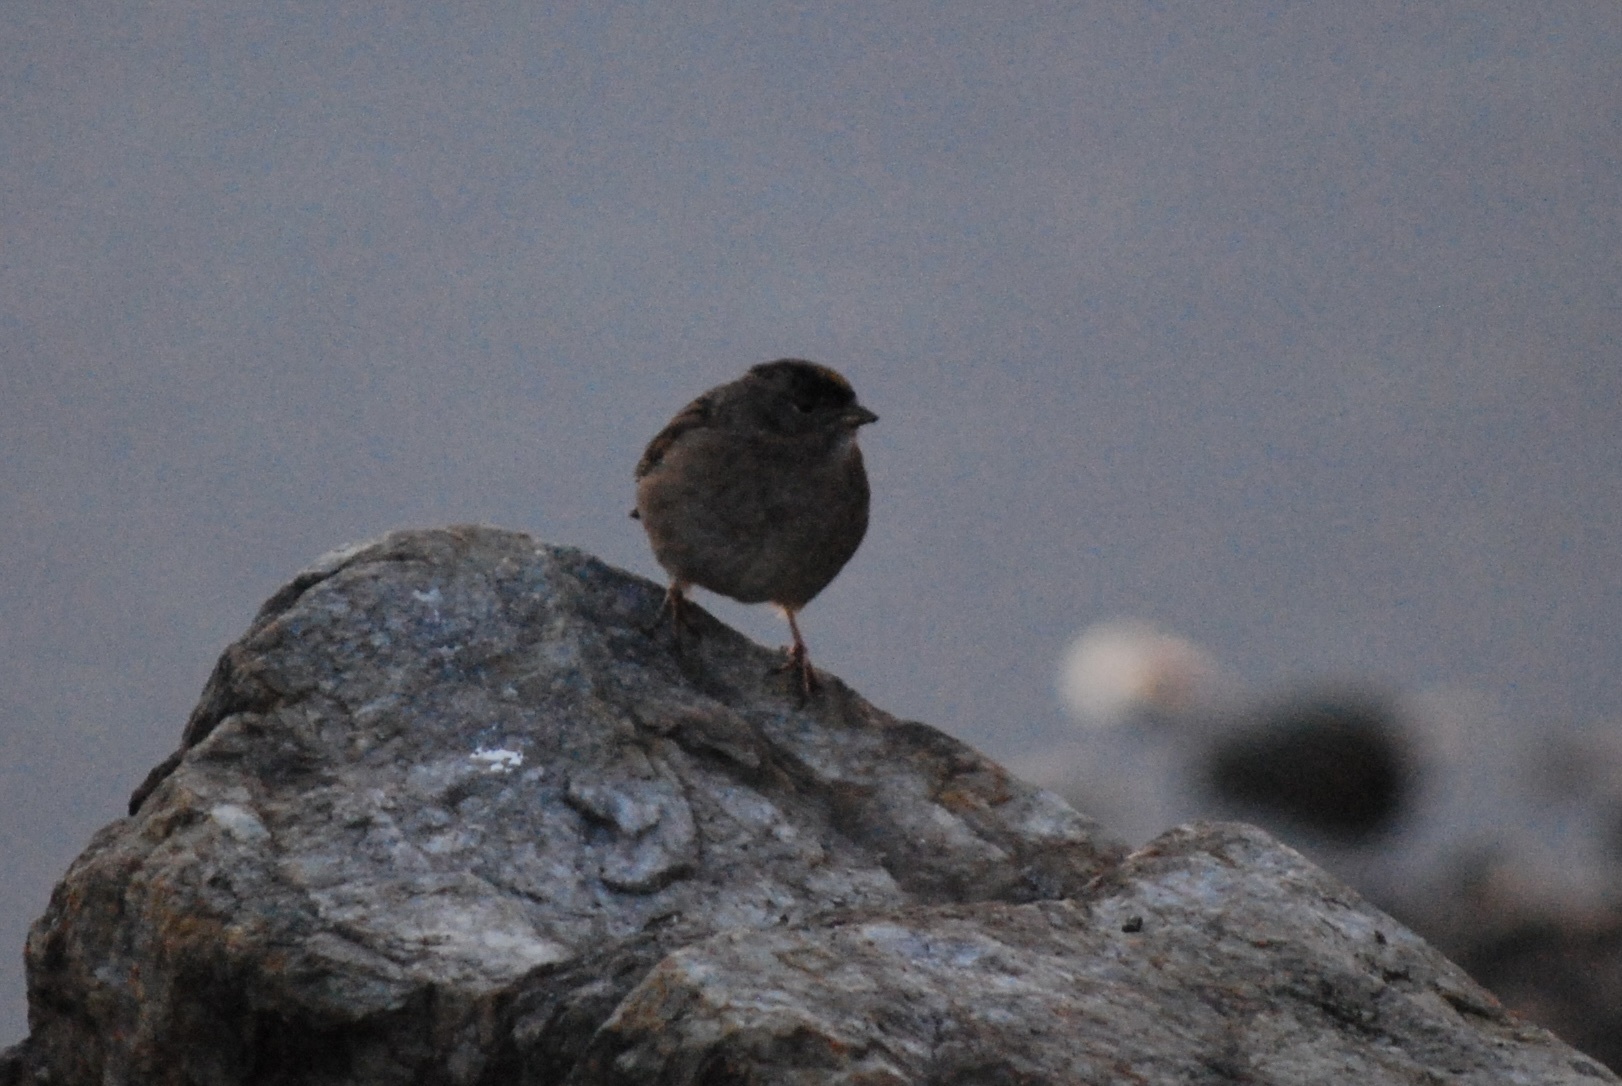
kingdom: Animalia
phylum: Chordata
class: Aves
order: Passeriformes
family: Passerellidae
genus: Zonotrichia
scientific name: Zonotrichia atricapilla
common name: Golden-crowned sparrow
